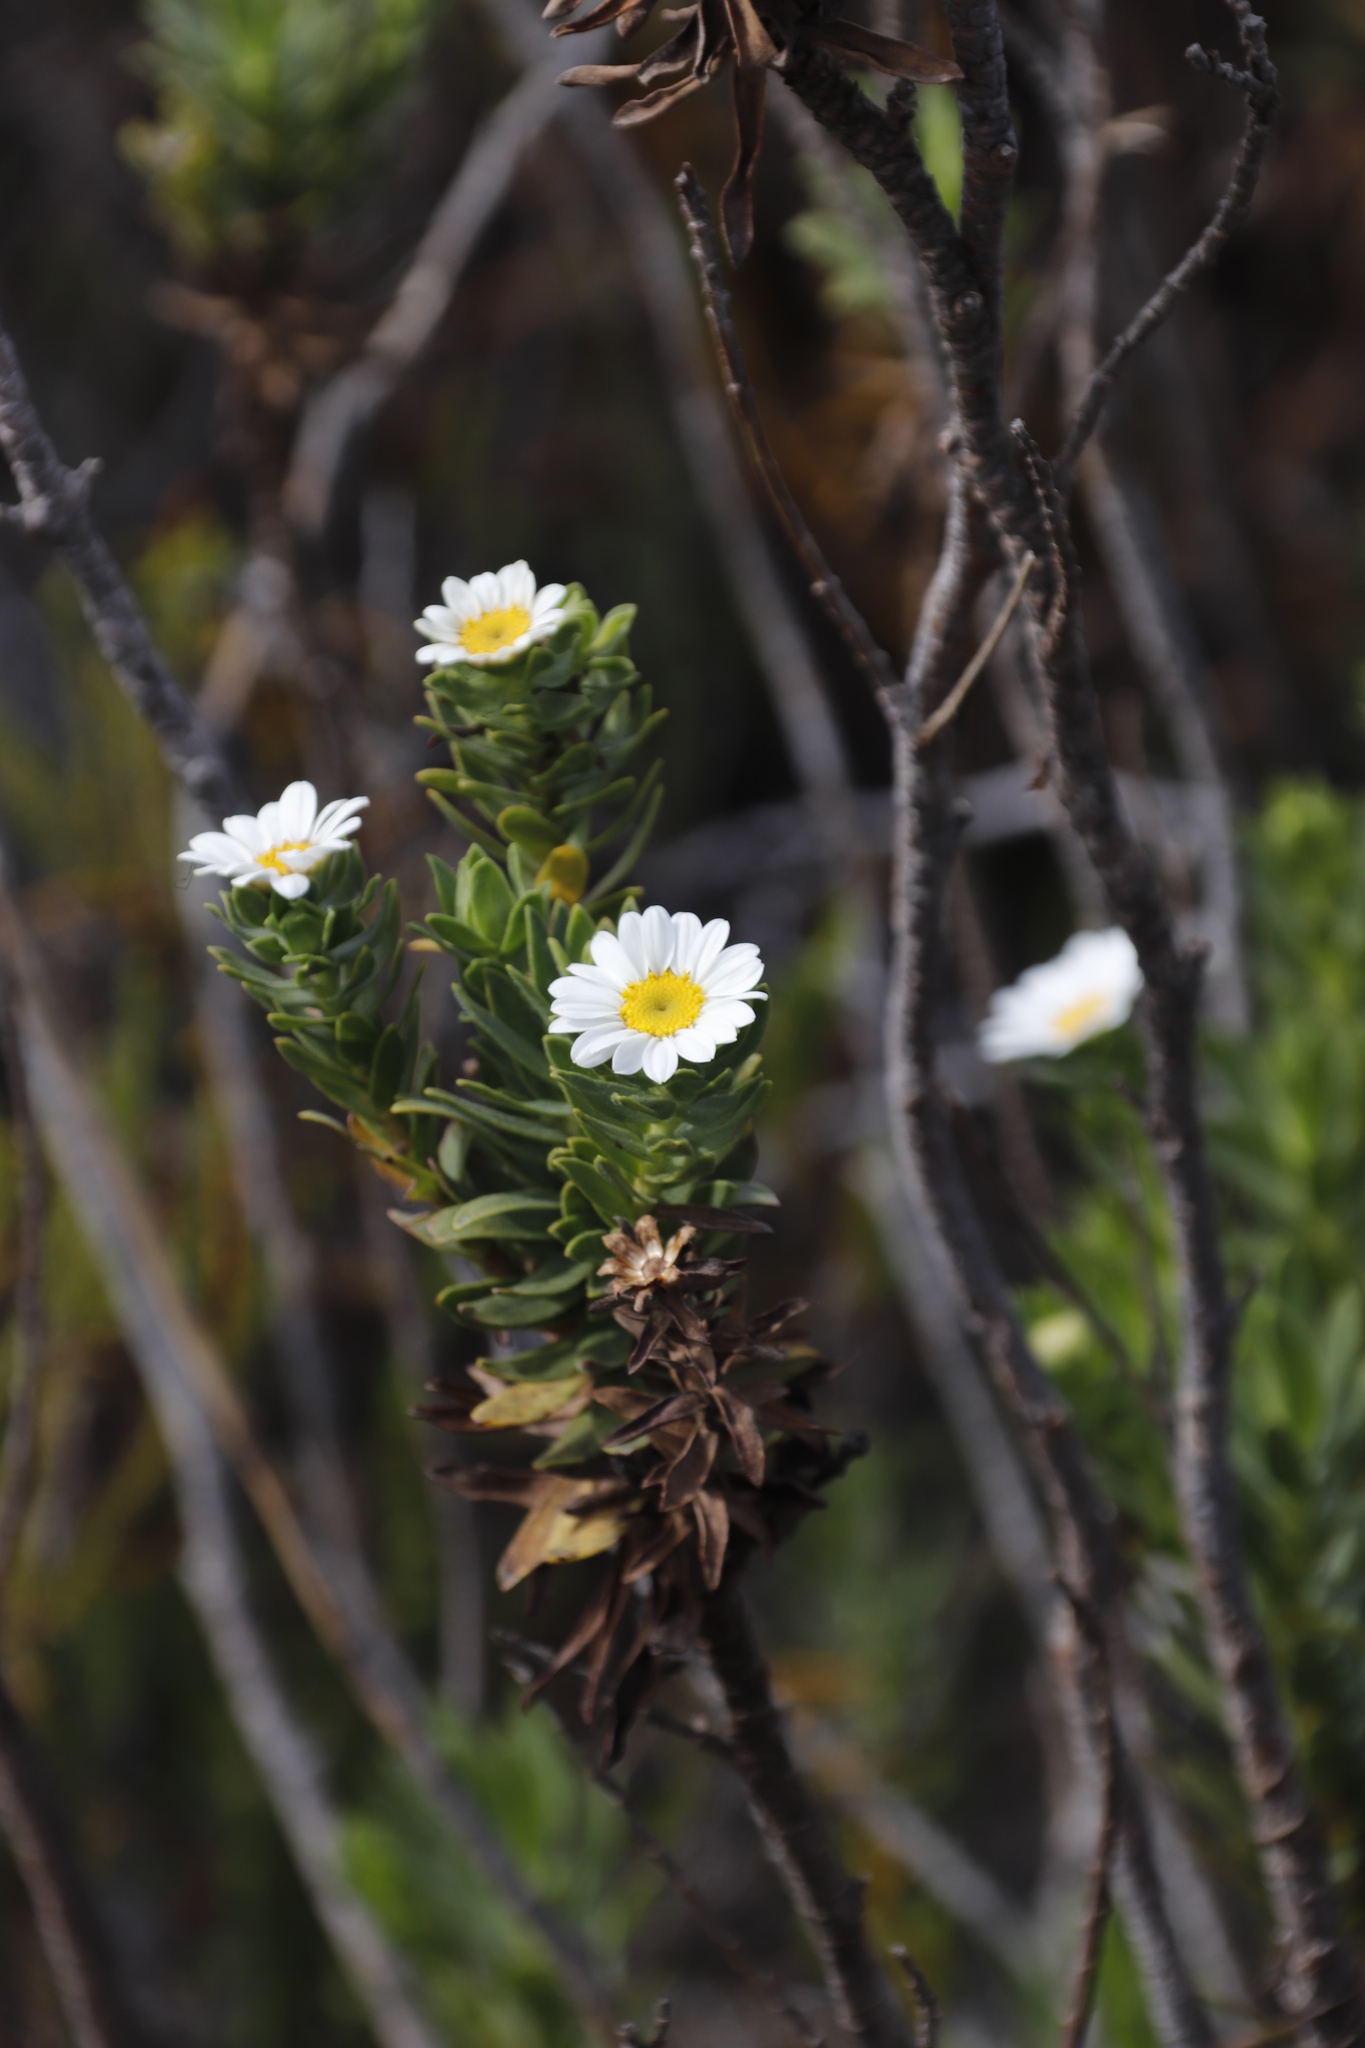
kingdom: Plantae
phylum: Tracheophyta
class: Magnoliopsida
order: Asterales
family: Asteraceae
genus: Osmitopsis
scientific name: Osmitopsis asteriscoides
